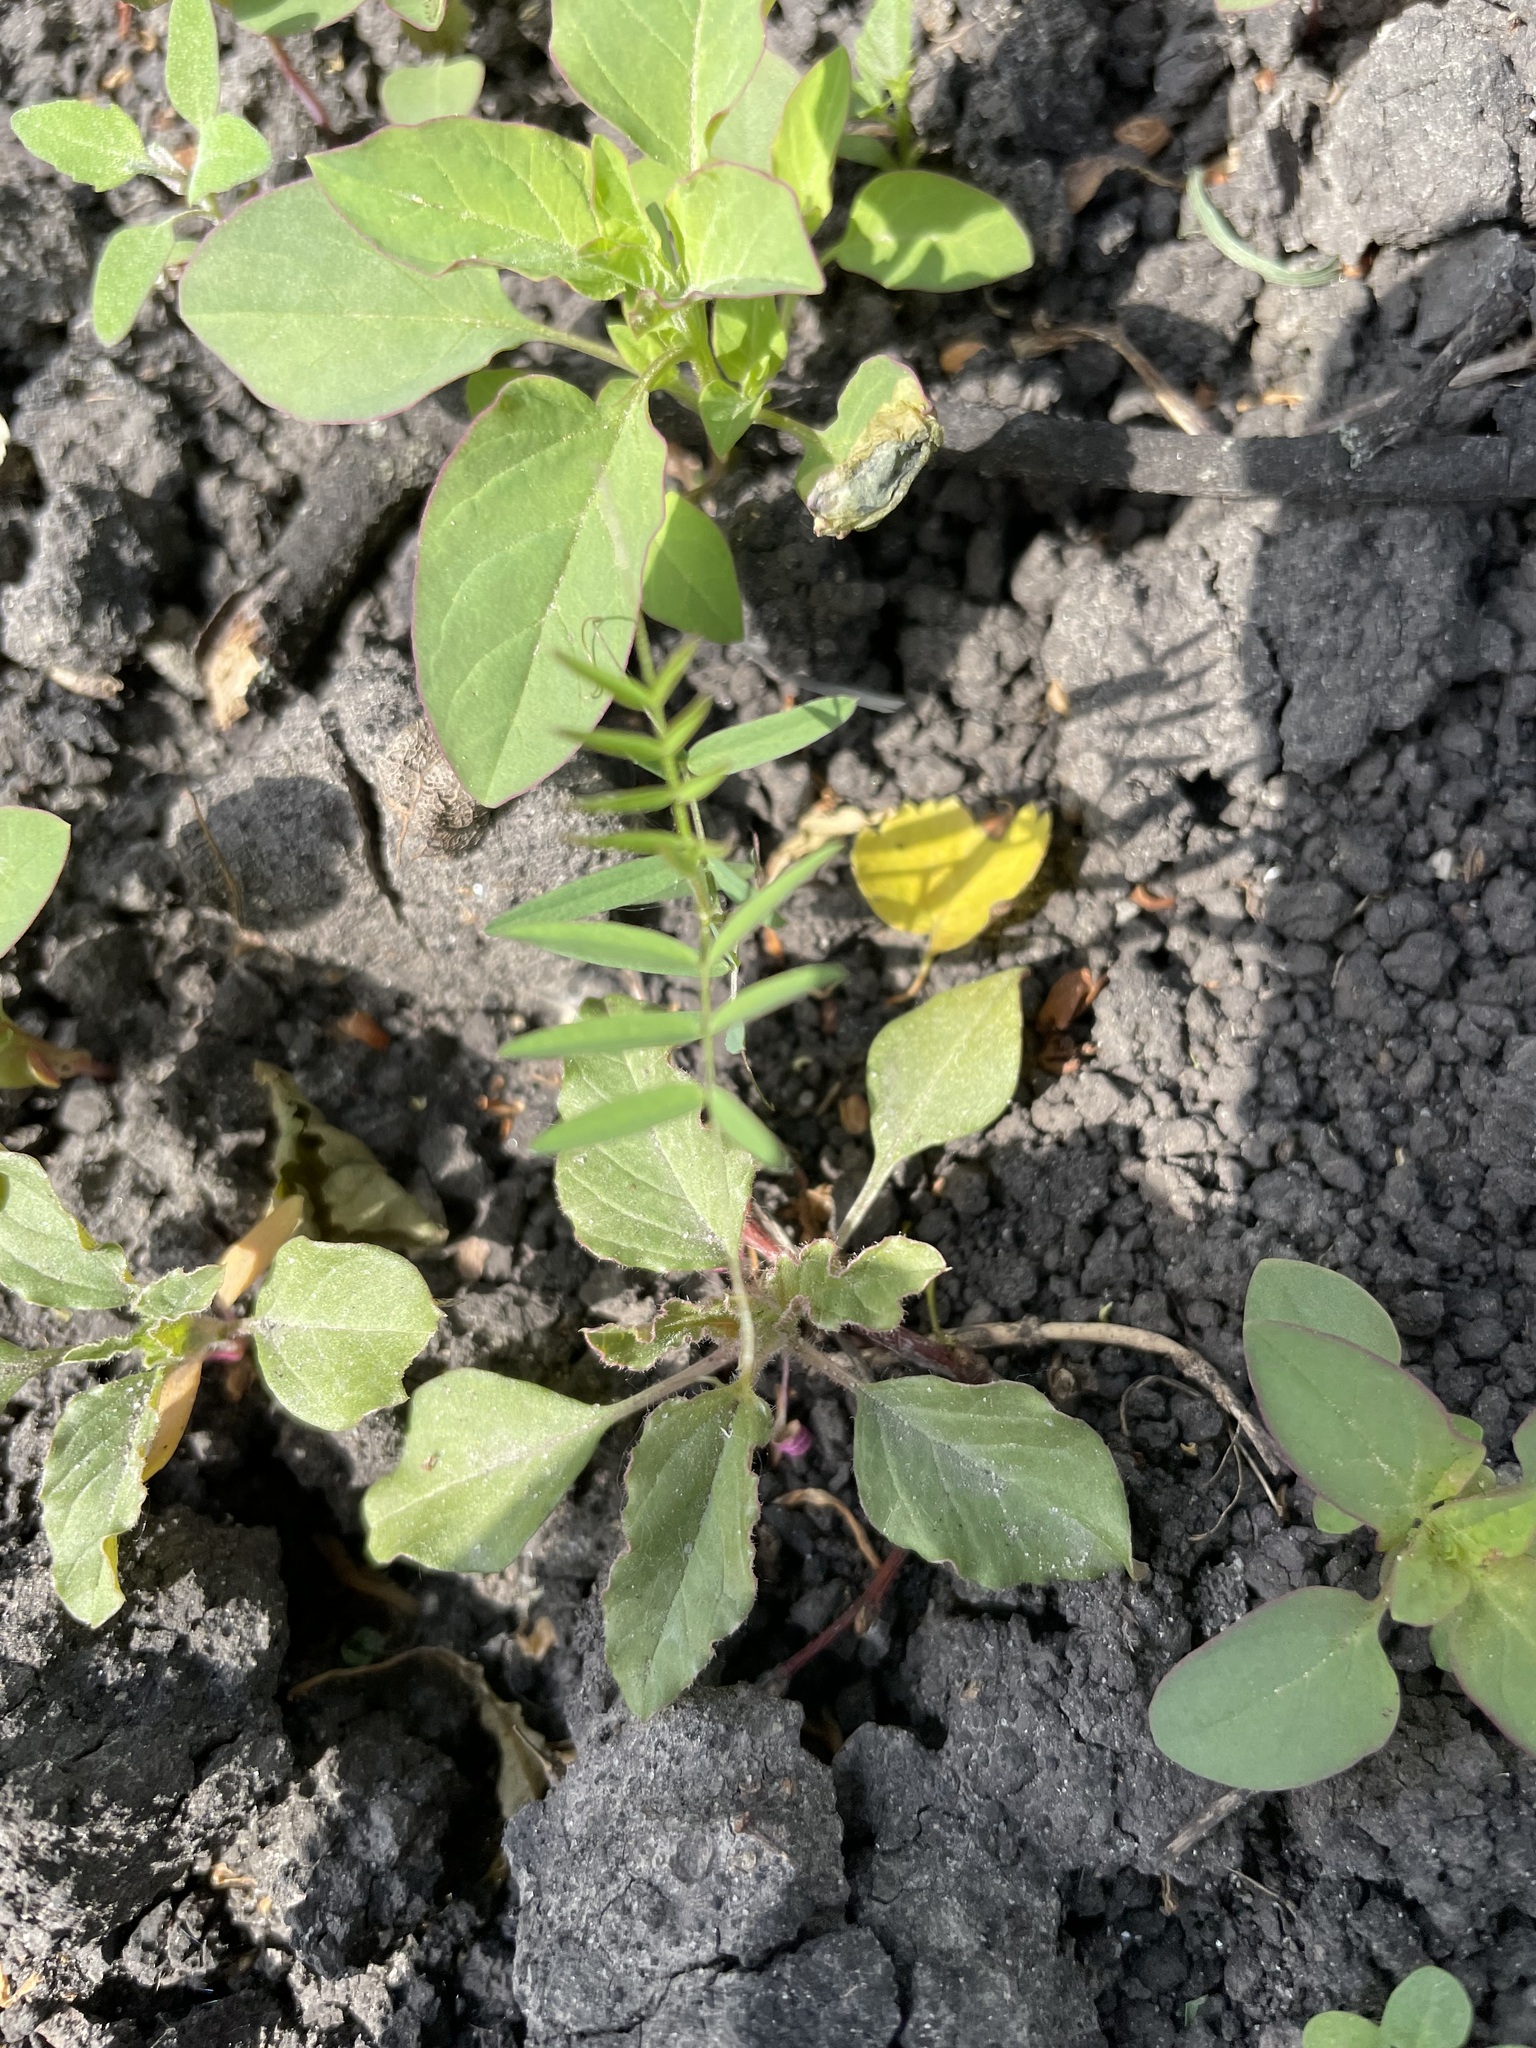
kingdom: Plantae
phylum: Tracheophyta
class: Magnoliopsida
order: Caryophyllales
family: Amaranthaceae
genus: Amaranthus
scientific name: Amaranthus retroflexus
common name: Redroot amaranth
